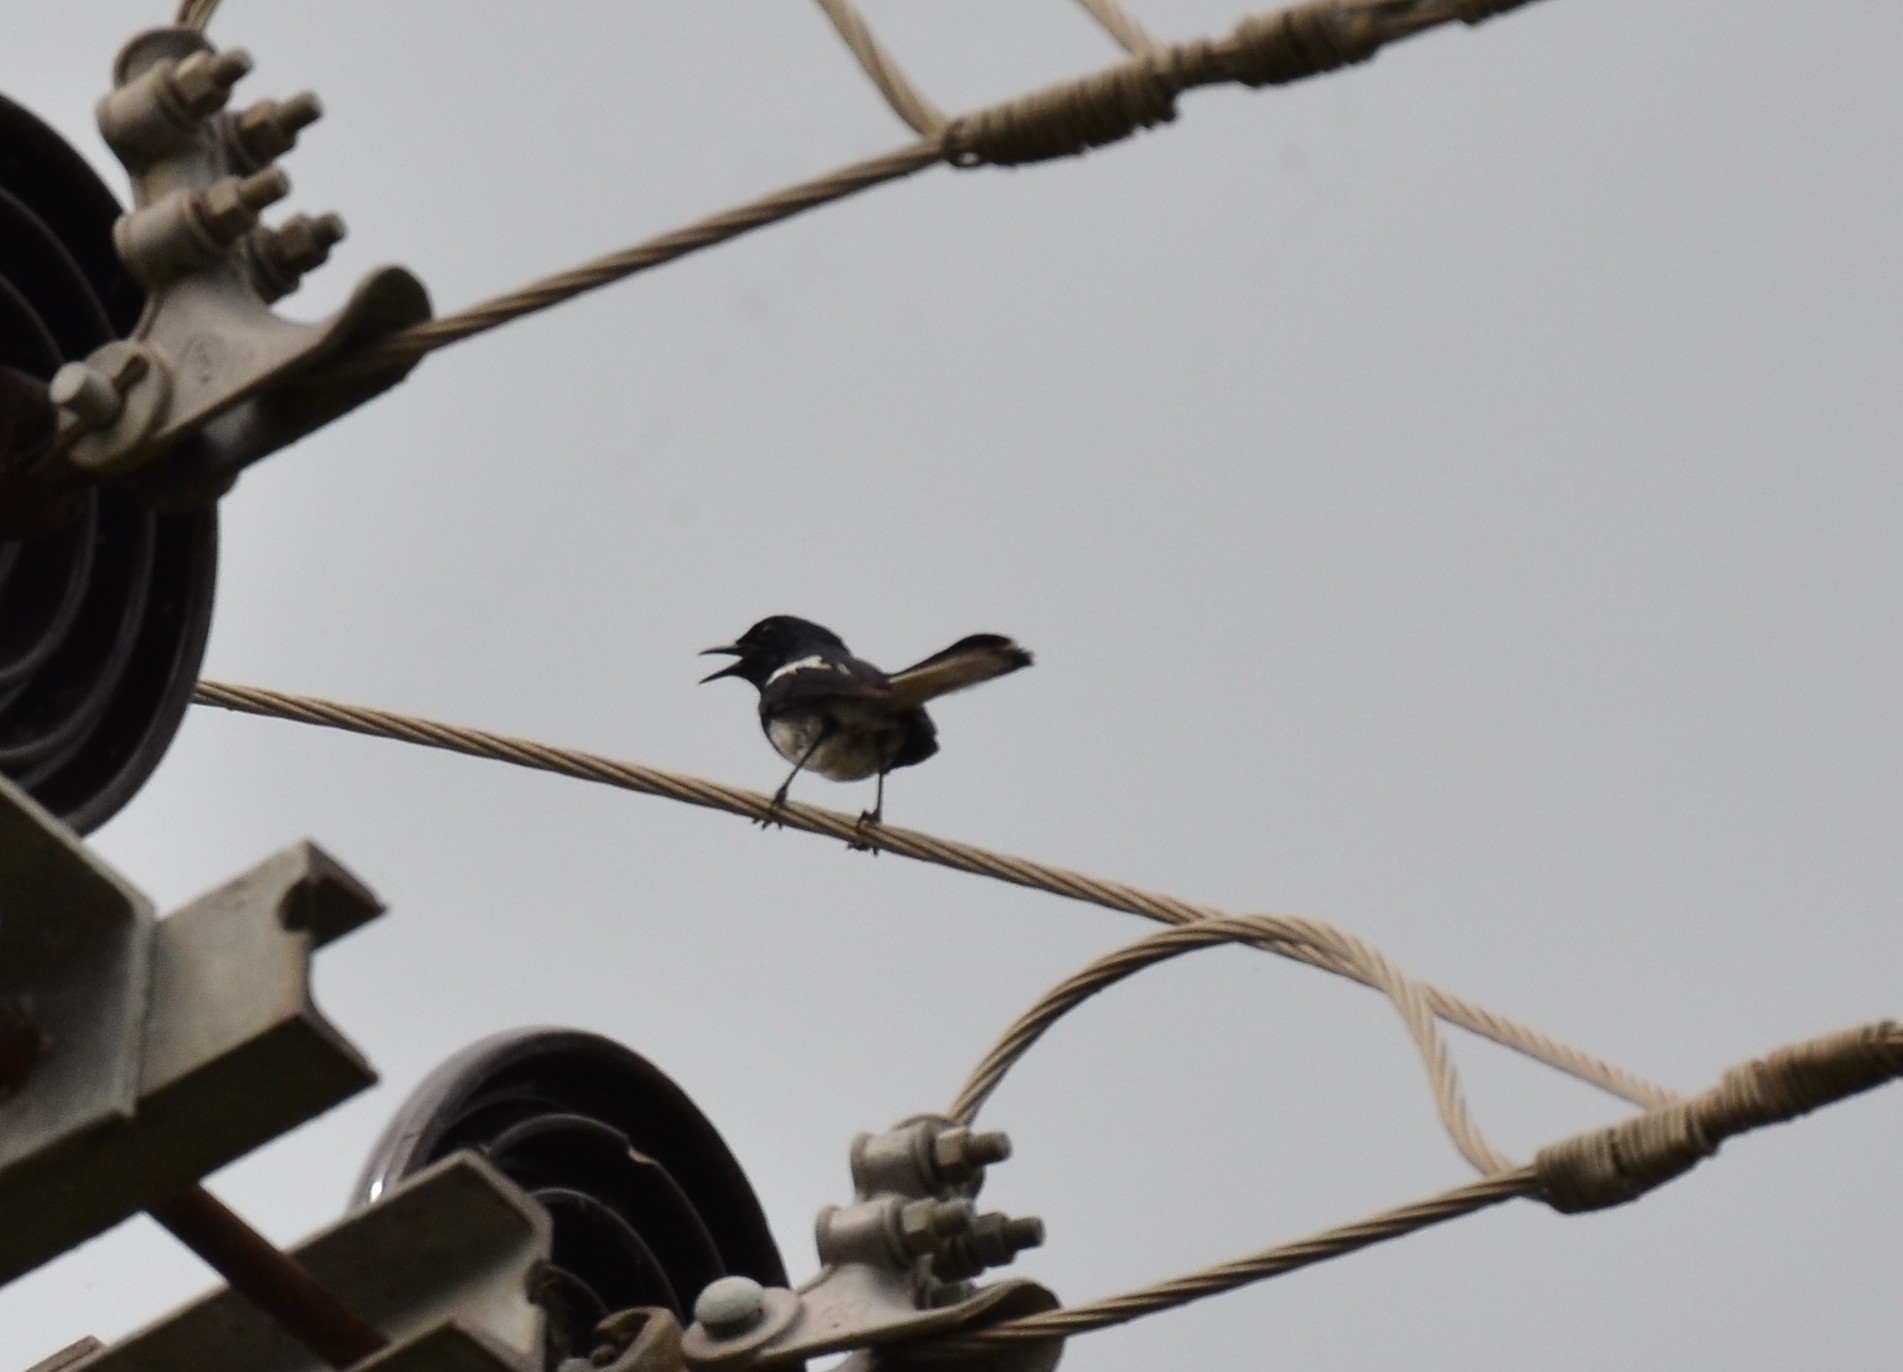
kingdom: Animalia
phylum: Chordata
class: Aves
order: Passeriformes
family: Muscicapidae
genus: Copsychus
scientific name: Copsychus saularis
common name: Oriental magpie-robin
